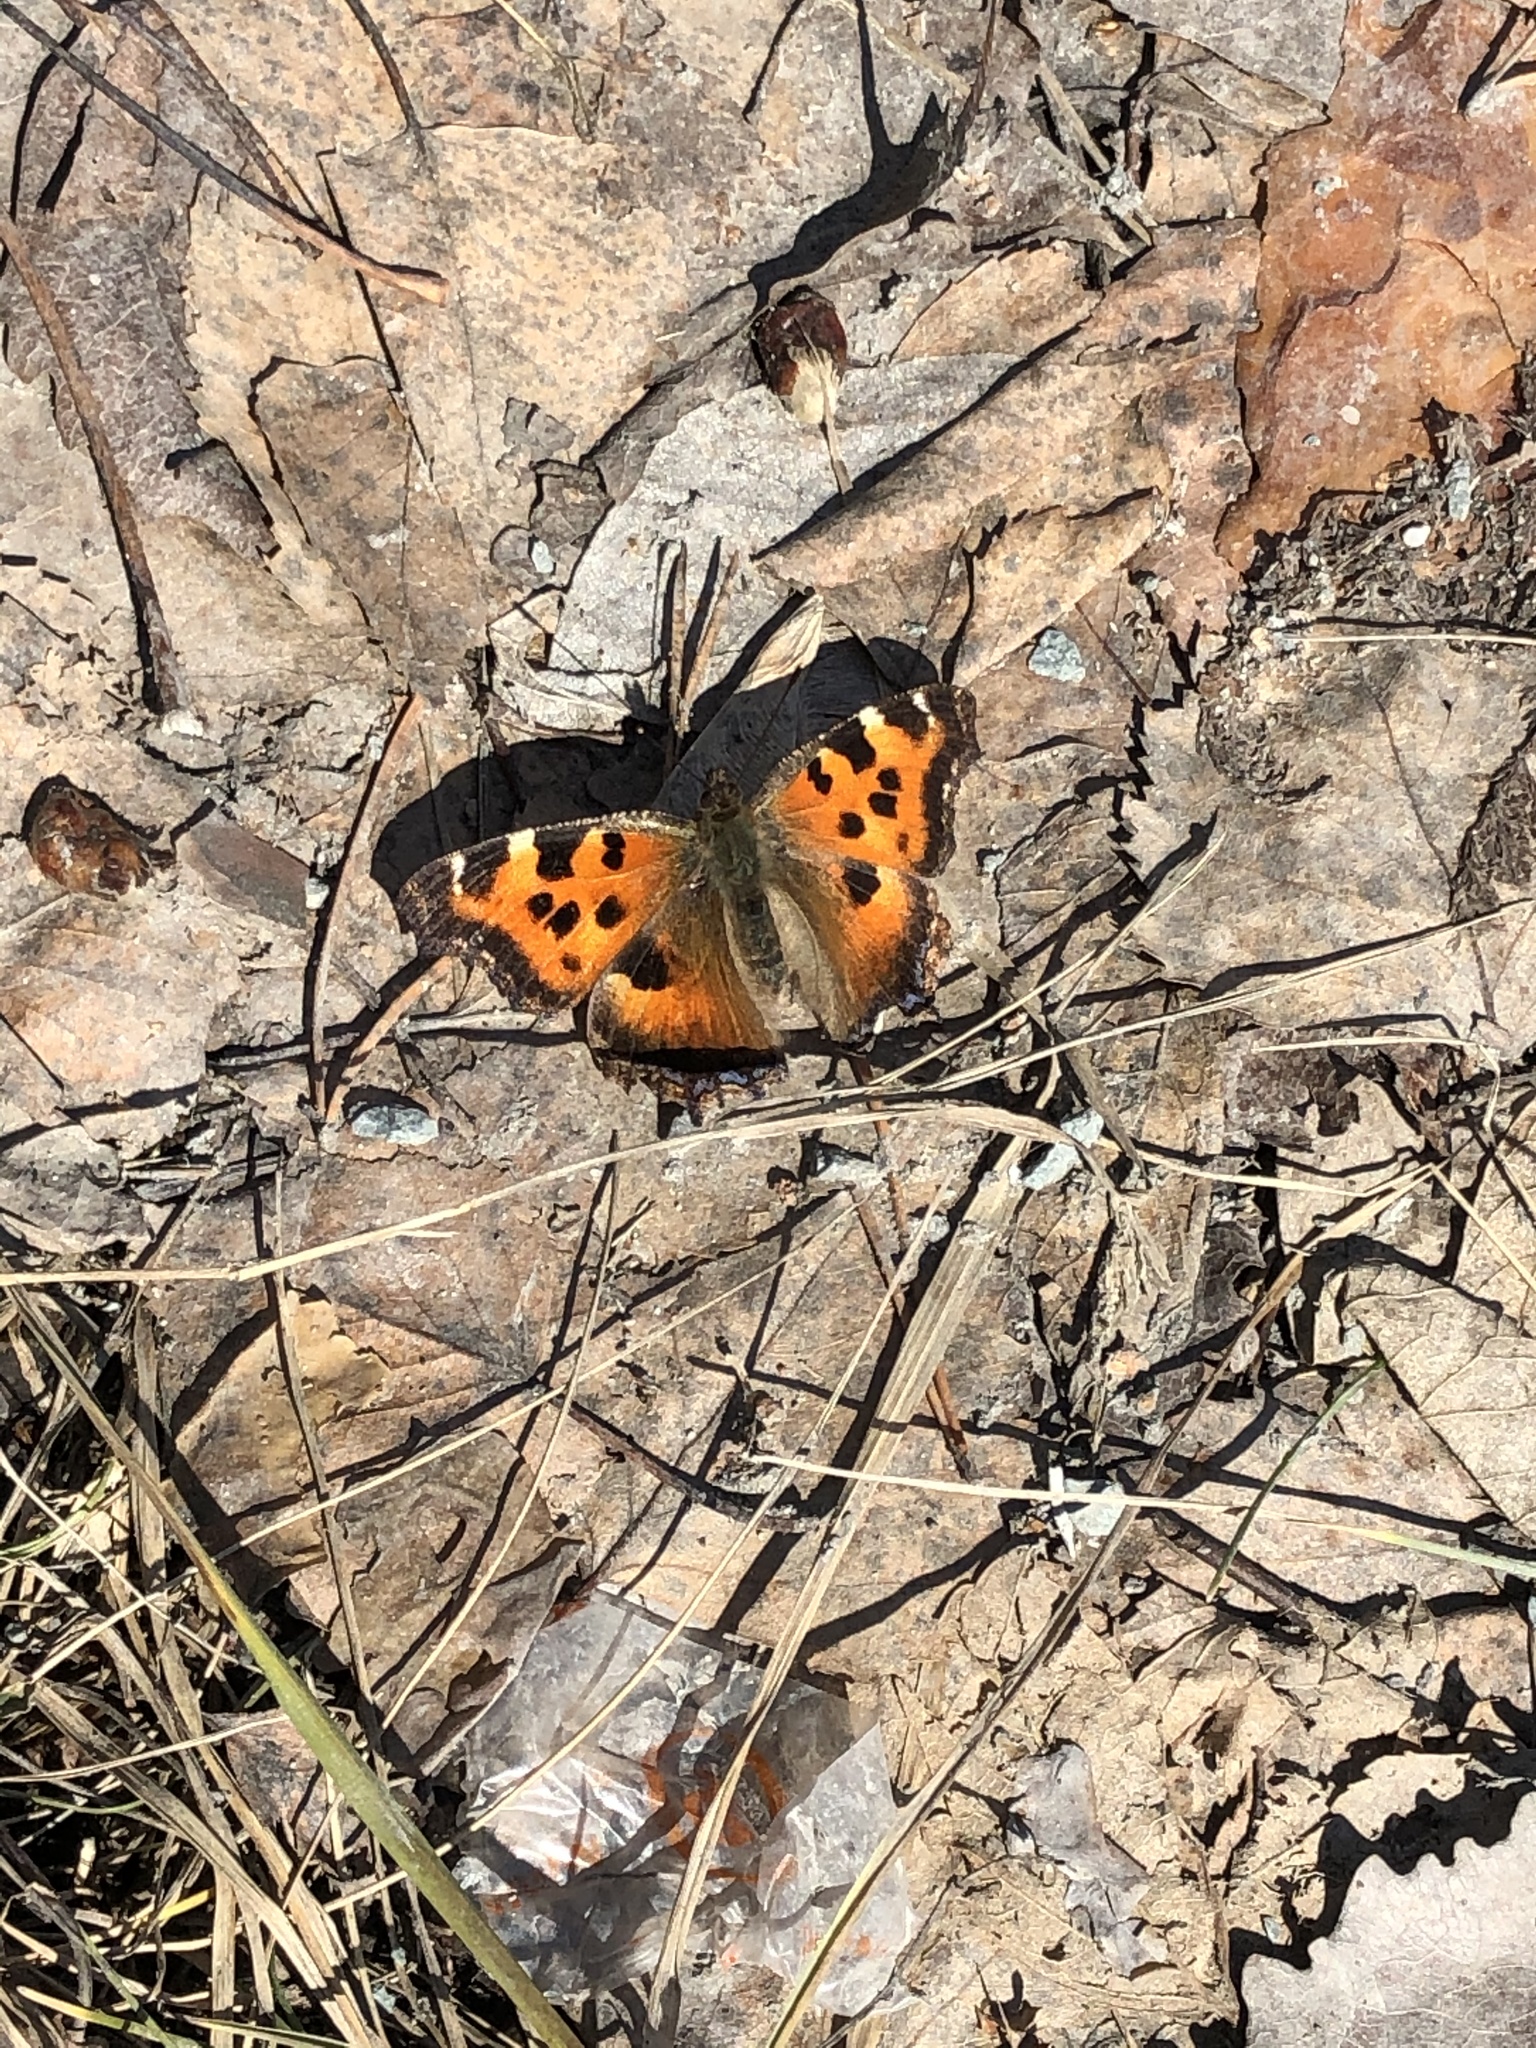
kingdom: Animalia
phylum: Arthropoda
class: Insecta
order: Lepidoptera
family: Nymphalidae
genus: Nymphalis
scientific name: Nymphalis xanthomelas
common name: Scarce tortoiseshell
